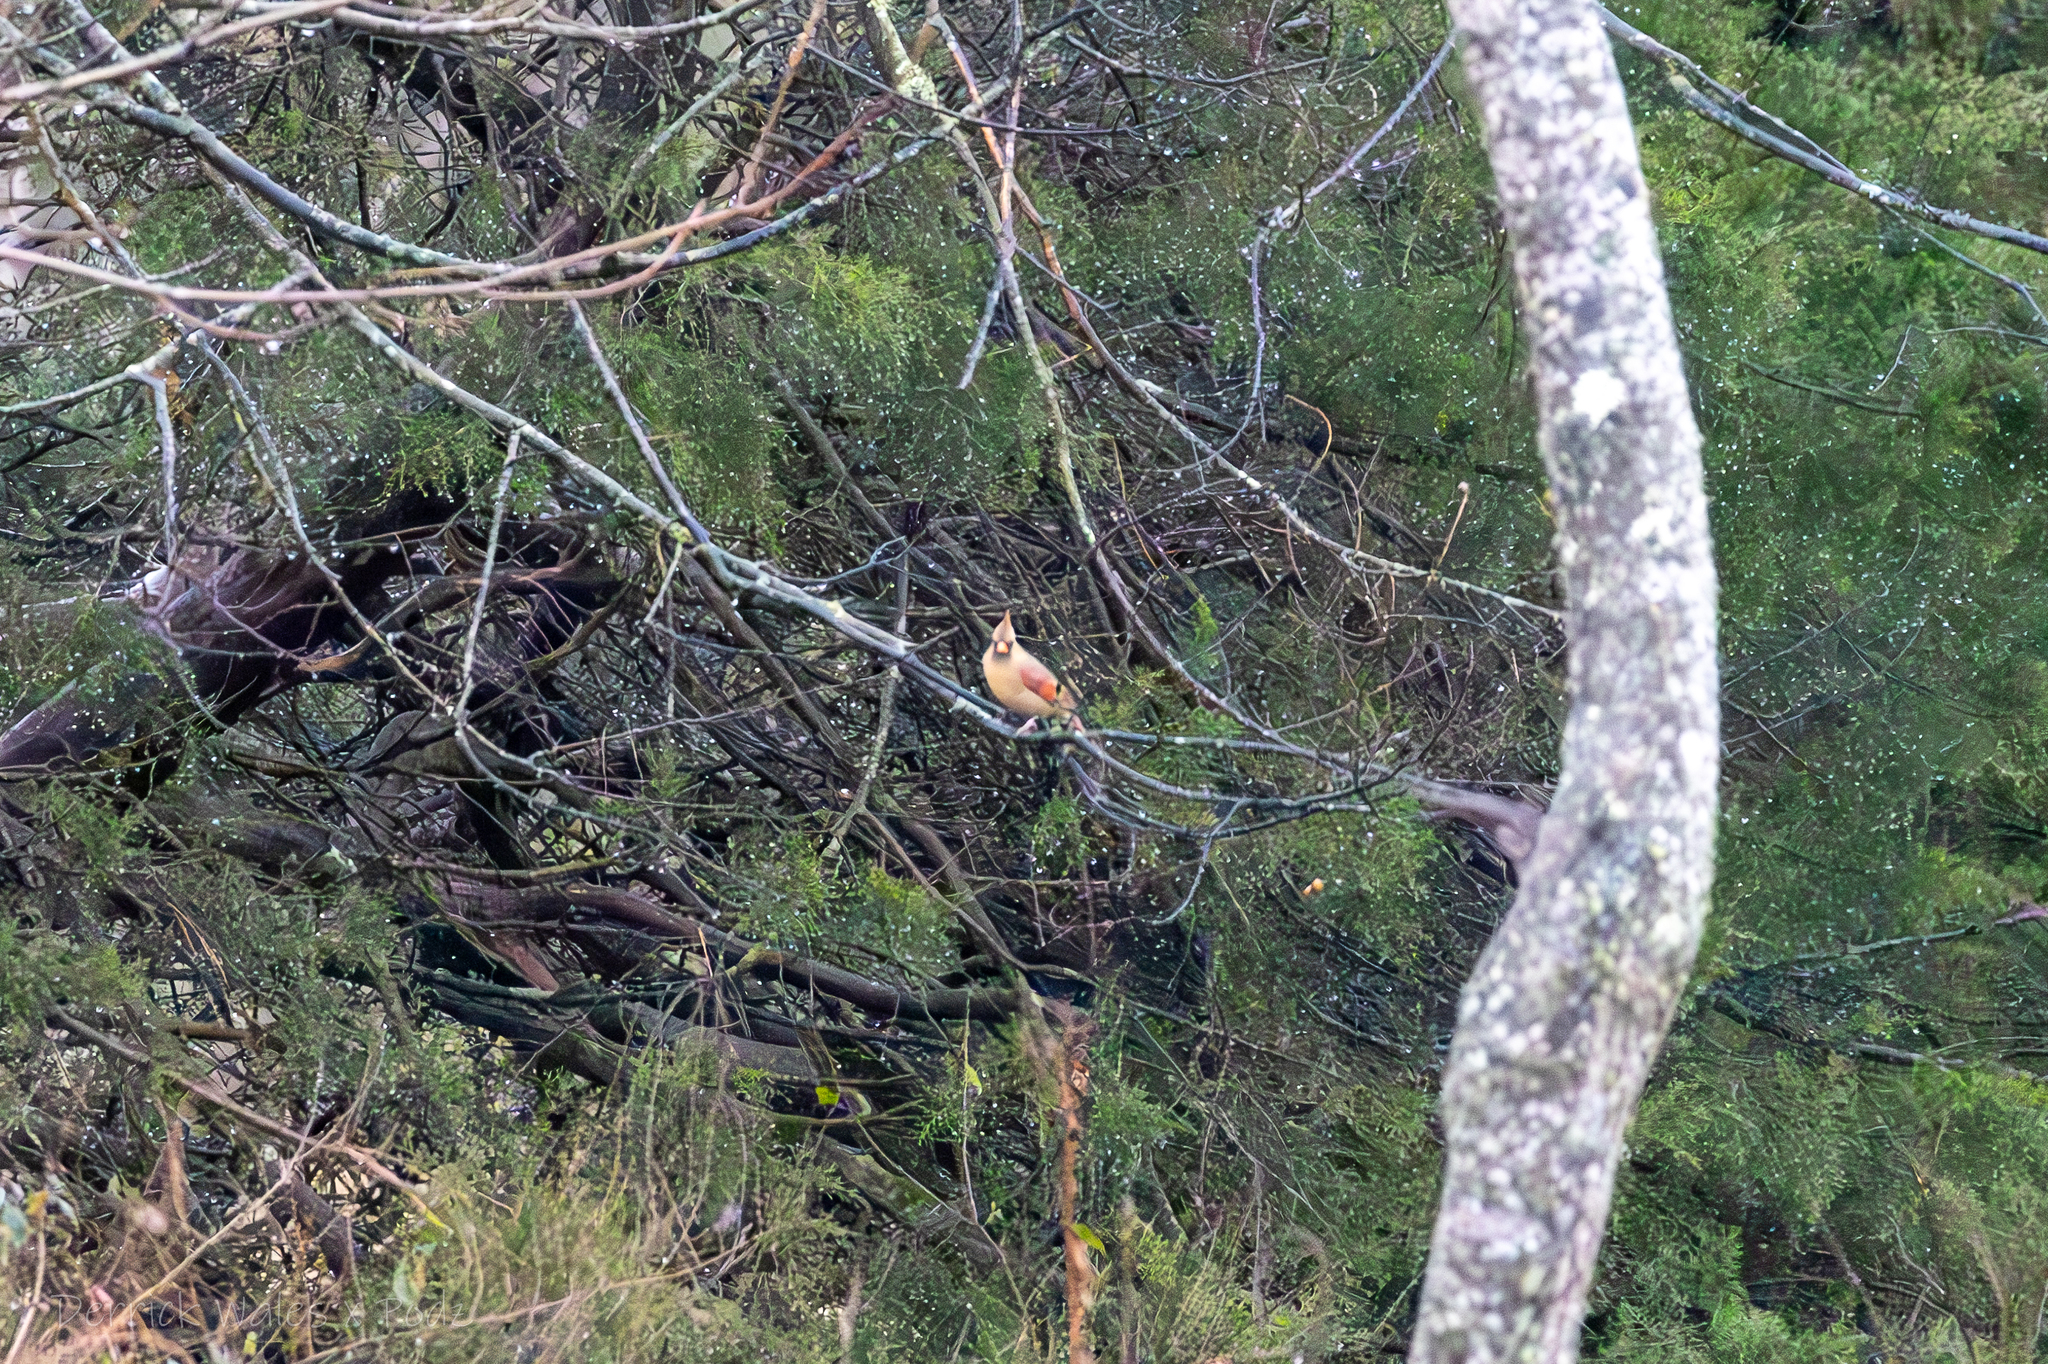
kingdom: Animalia
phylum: Chordata
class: Aves
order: Passeriformes
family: Cardinalidae
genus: Cardinalis
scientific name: Cardinalis cardinalis
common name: Northern cardinal
